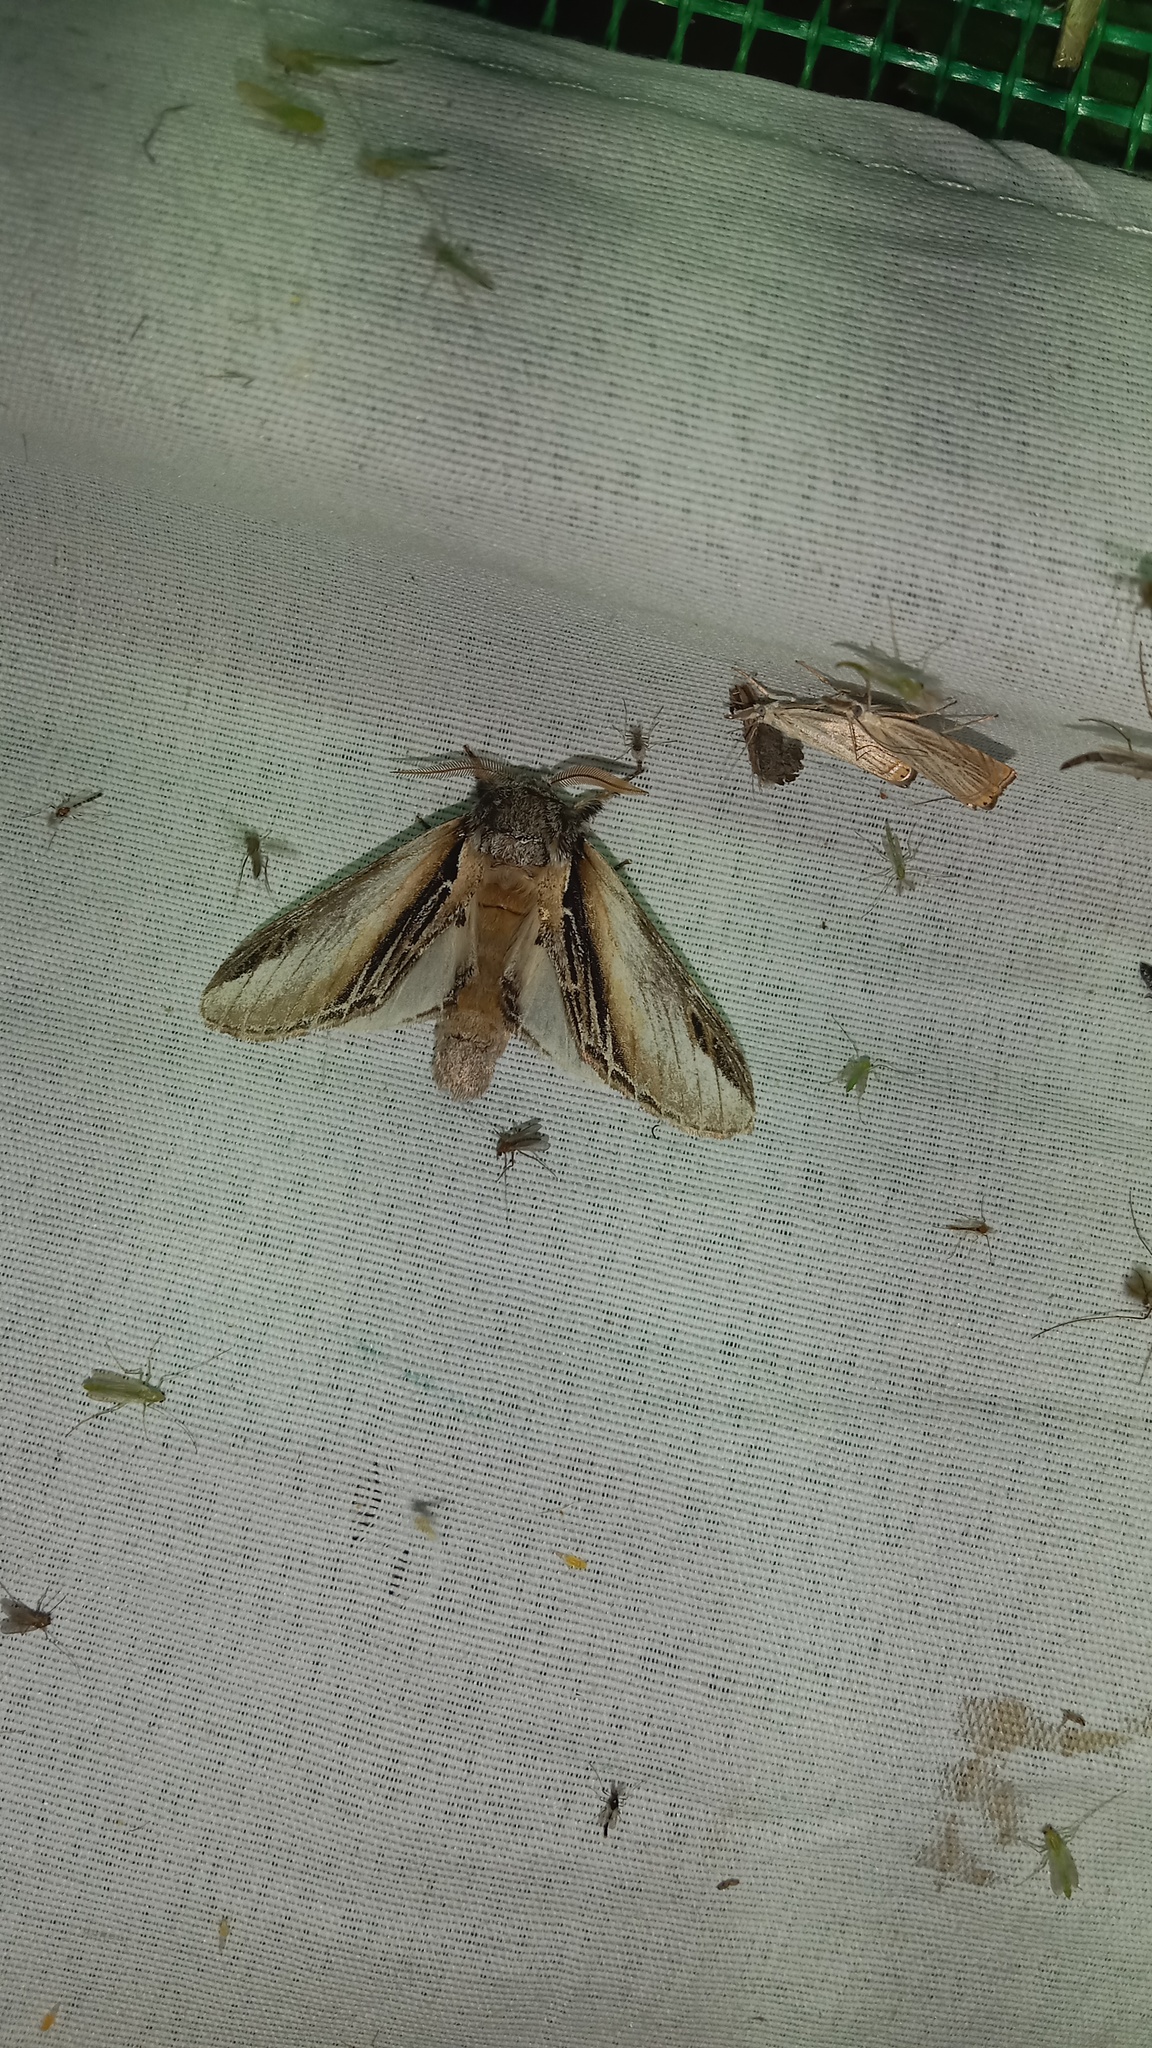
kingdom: Animalia
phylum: Arthropoda
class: Insecta
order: Lepidoptera
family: Notodontidae
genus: Pheosia
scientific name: Pheosia tremula
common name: Swallow prominent
